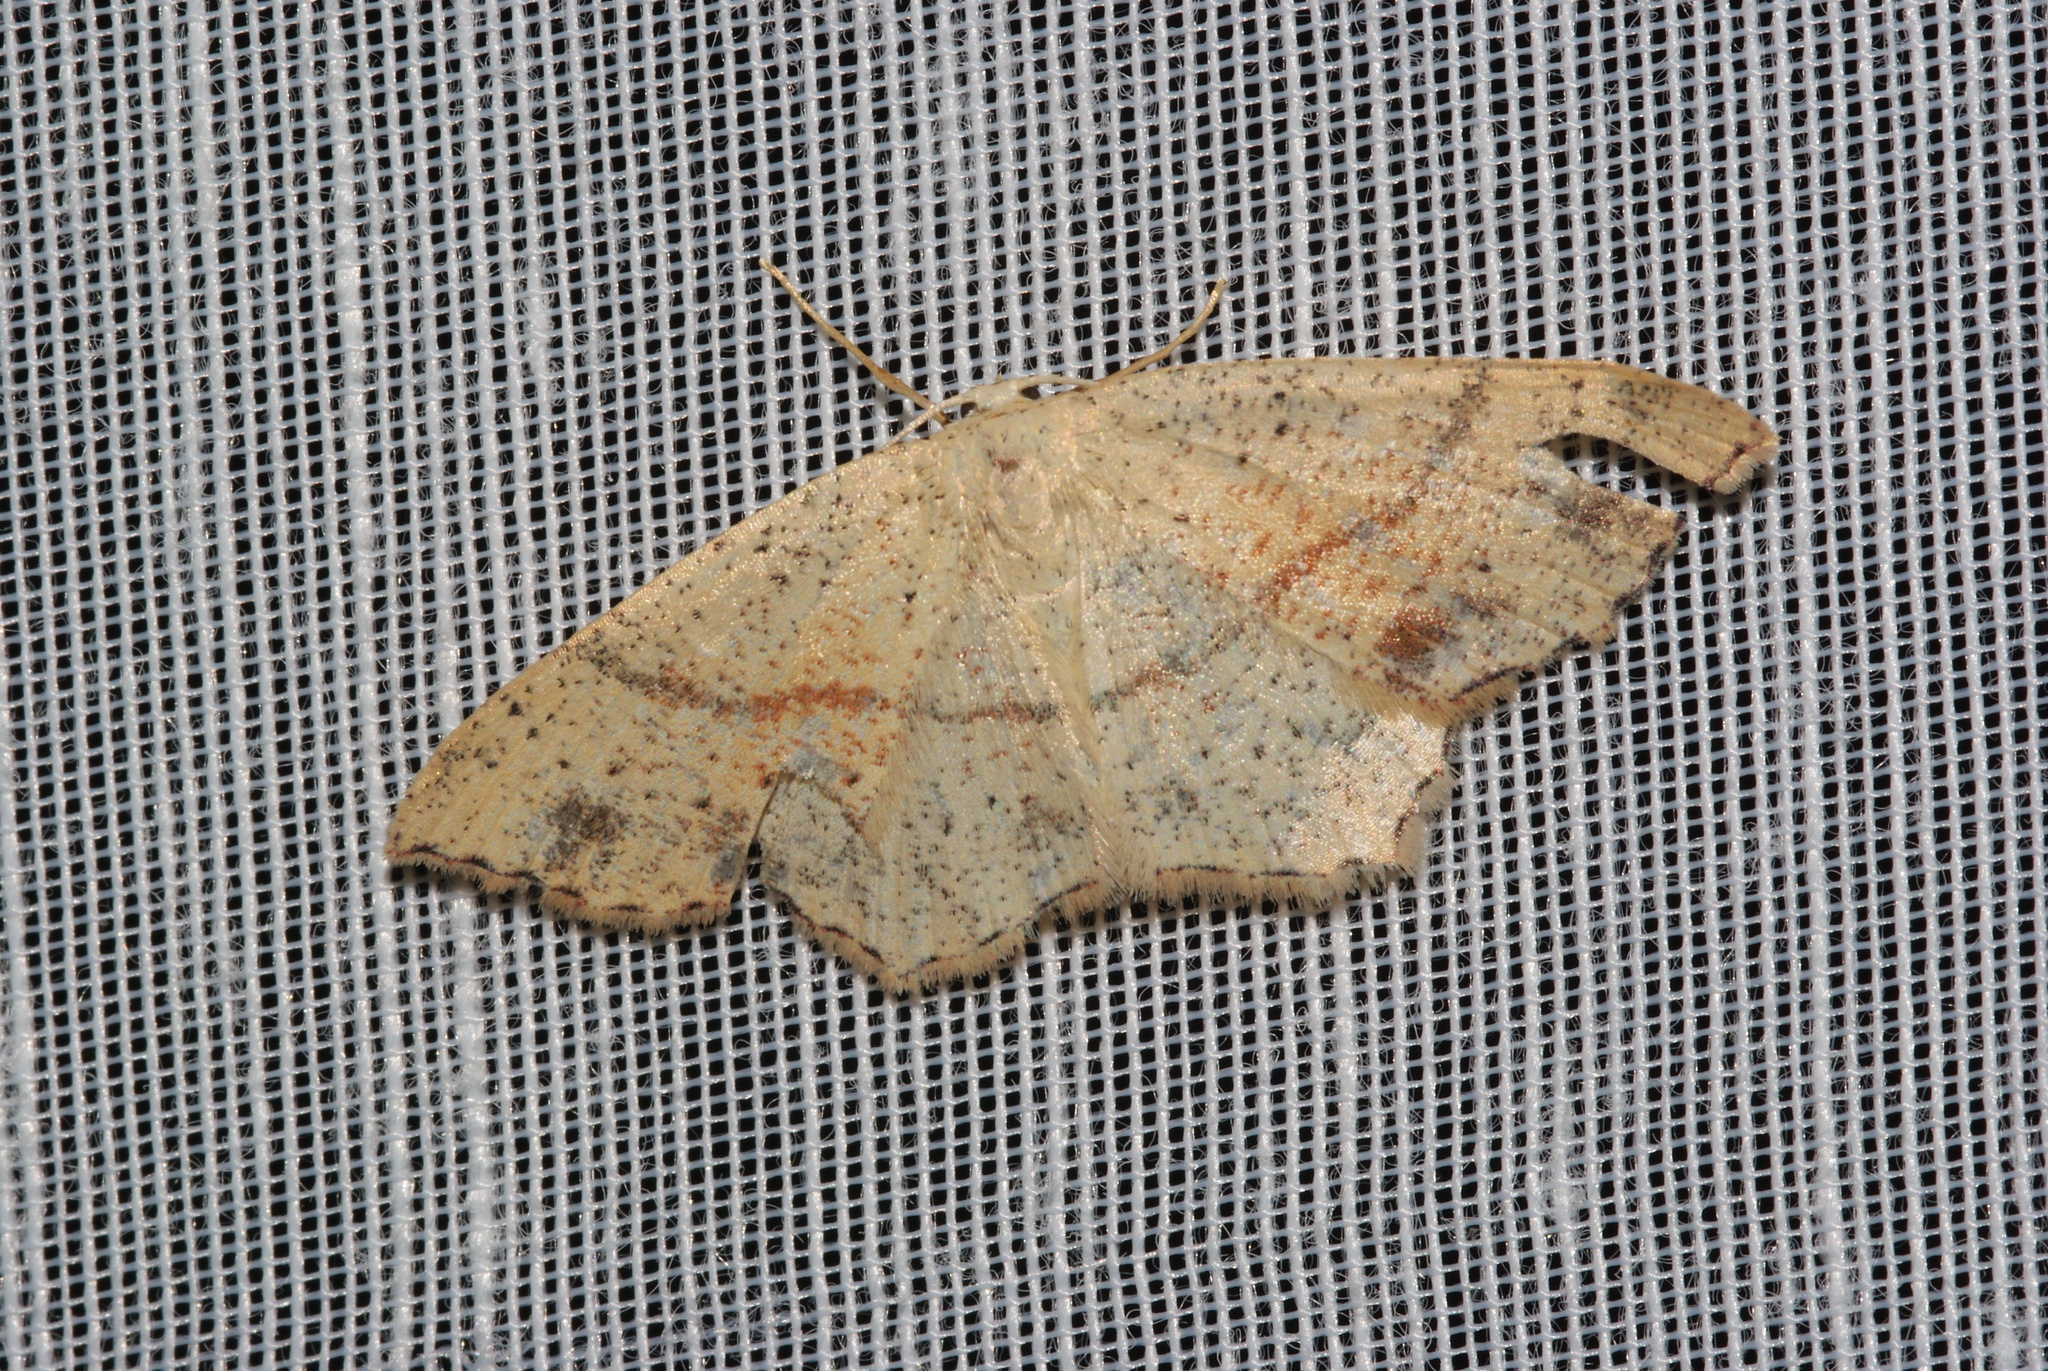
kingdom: Animalia
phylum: Arthropoda
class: Insecta
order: Lepidoptera
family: Geometridae
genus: Cyclophora
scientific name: Cyclophora punctaria
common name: Maiden's blush
